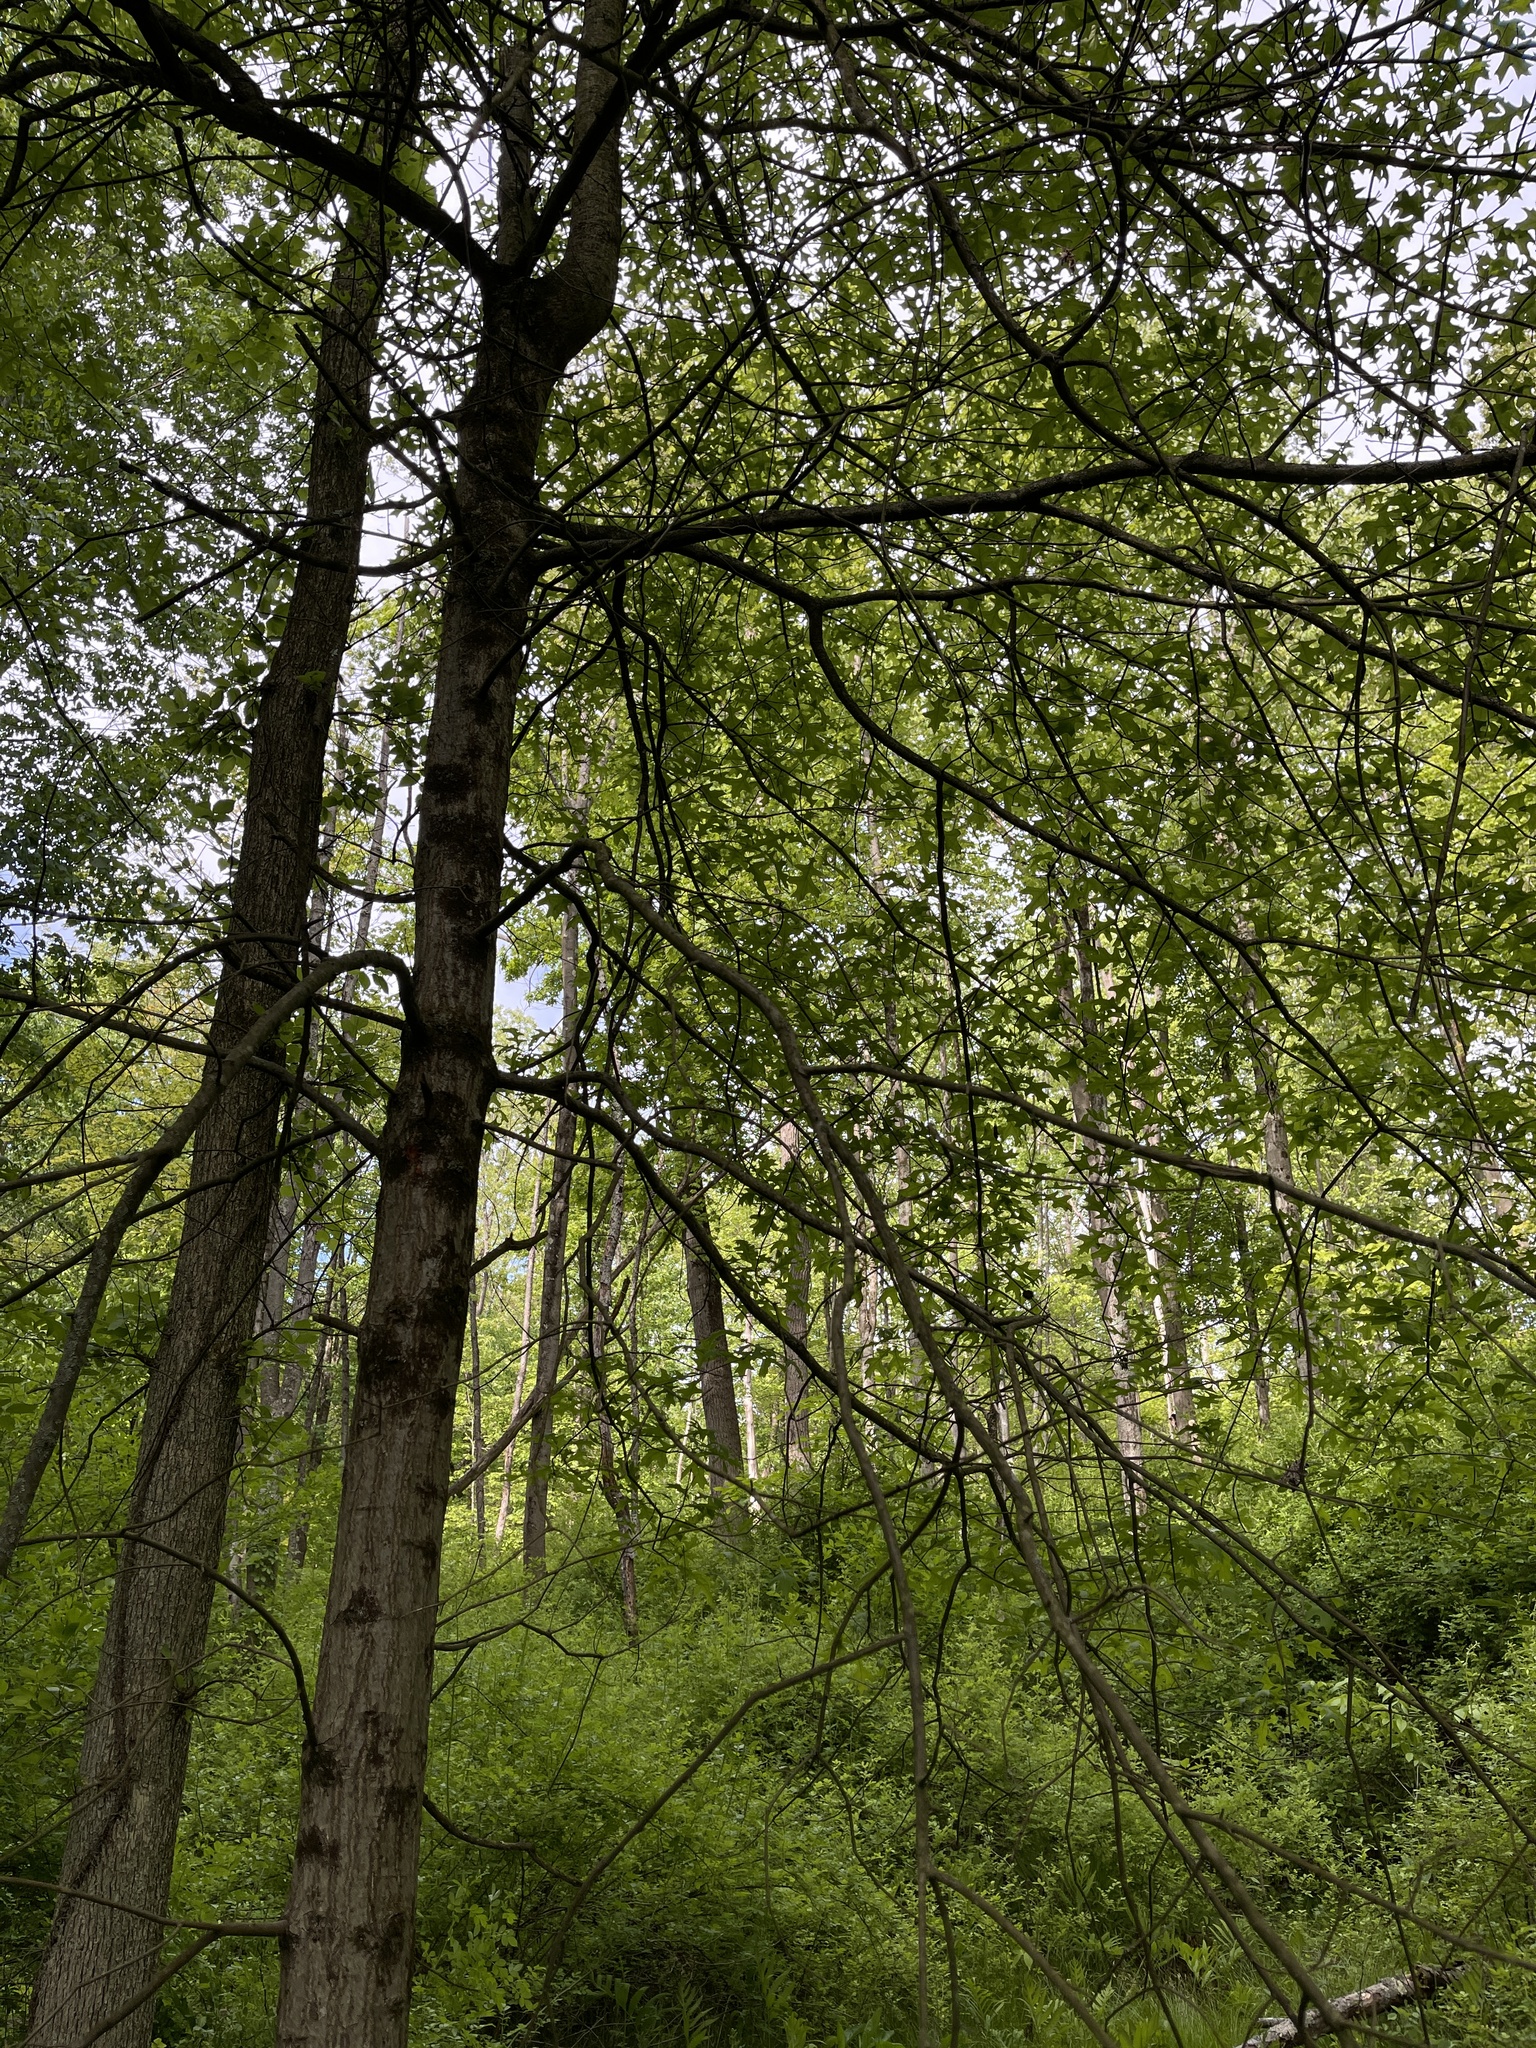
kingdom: Plantae
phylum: Tracheophyta
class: Magnoliopsida
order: Fagales
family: Fagaceae
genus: Quercus
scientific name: Quercus palustris
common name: Pin oak
